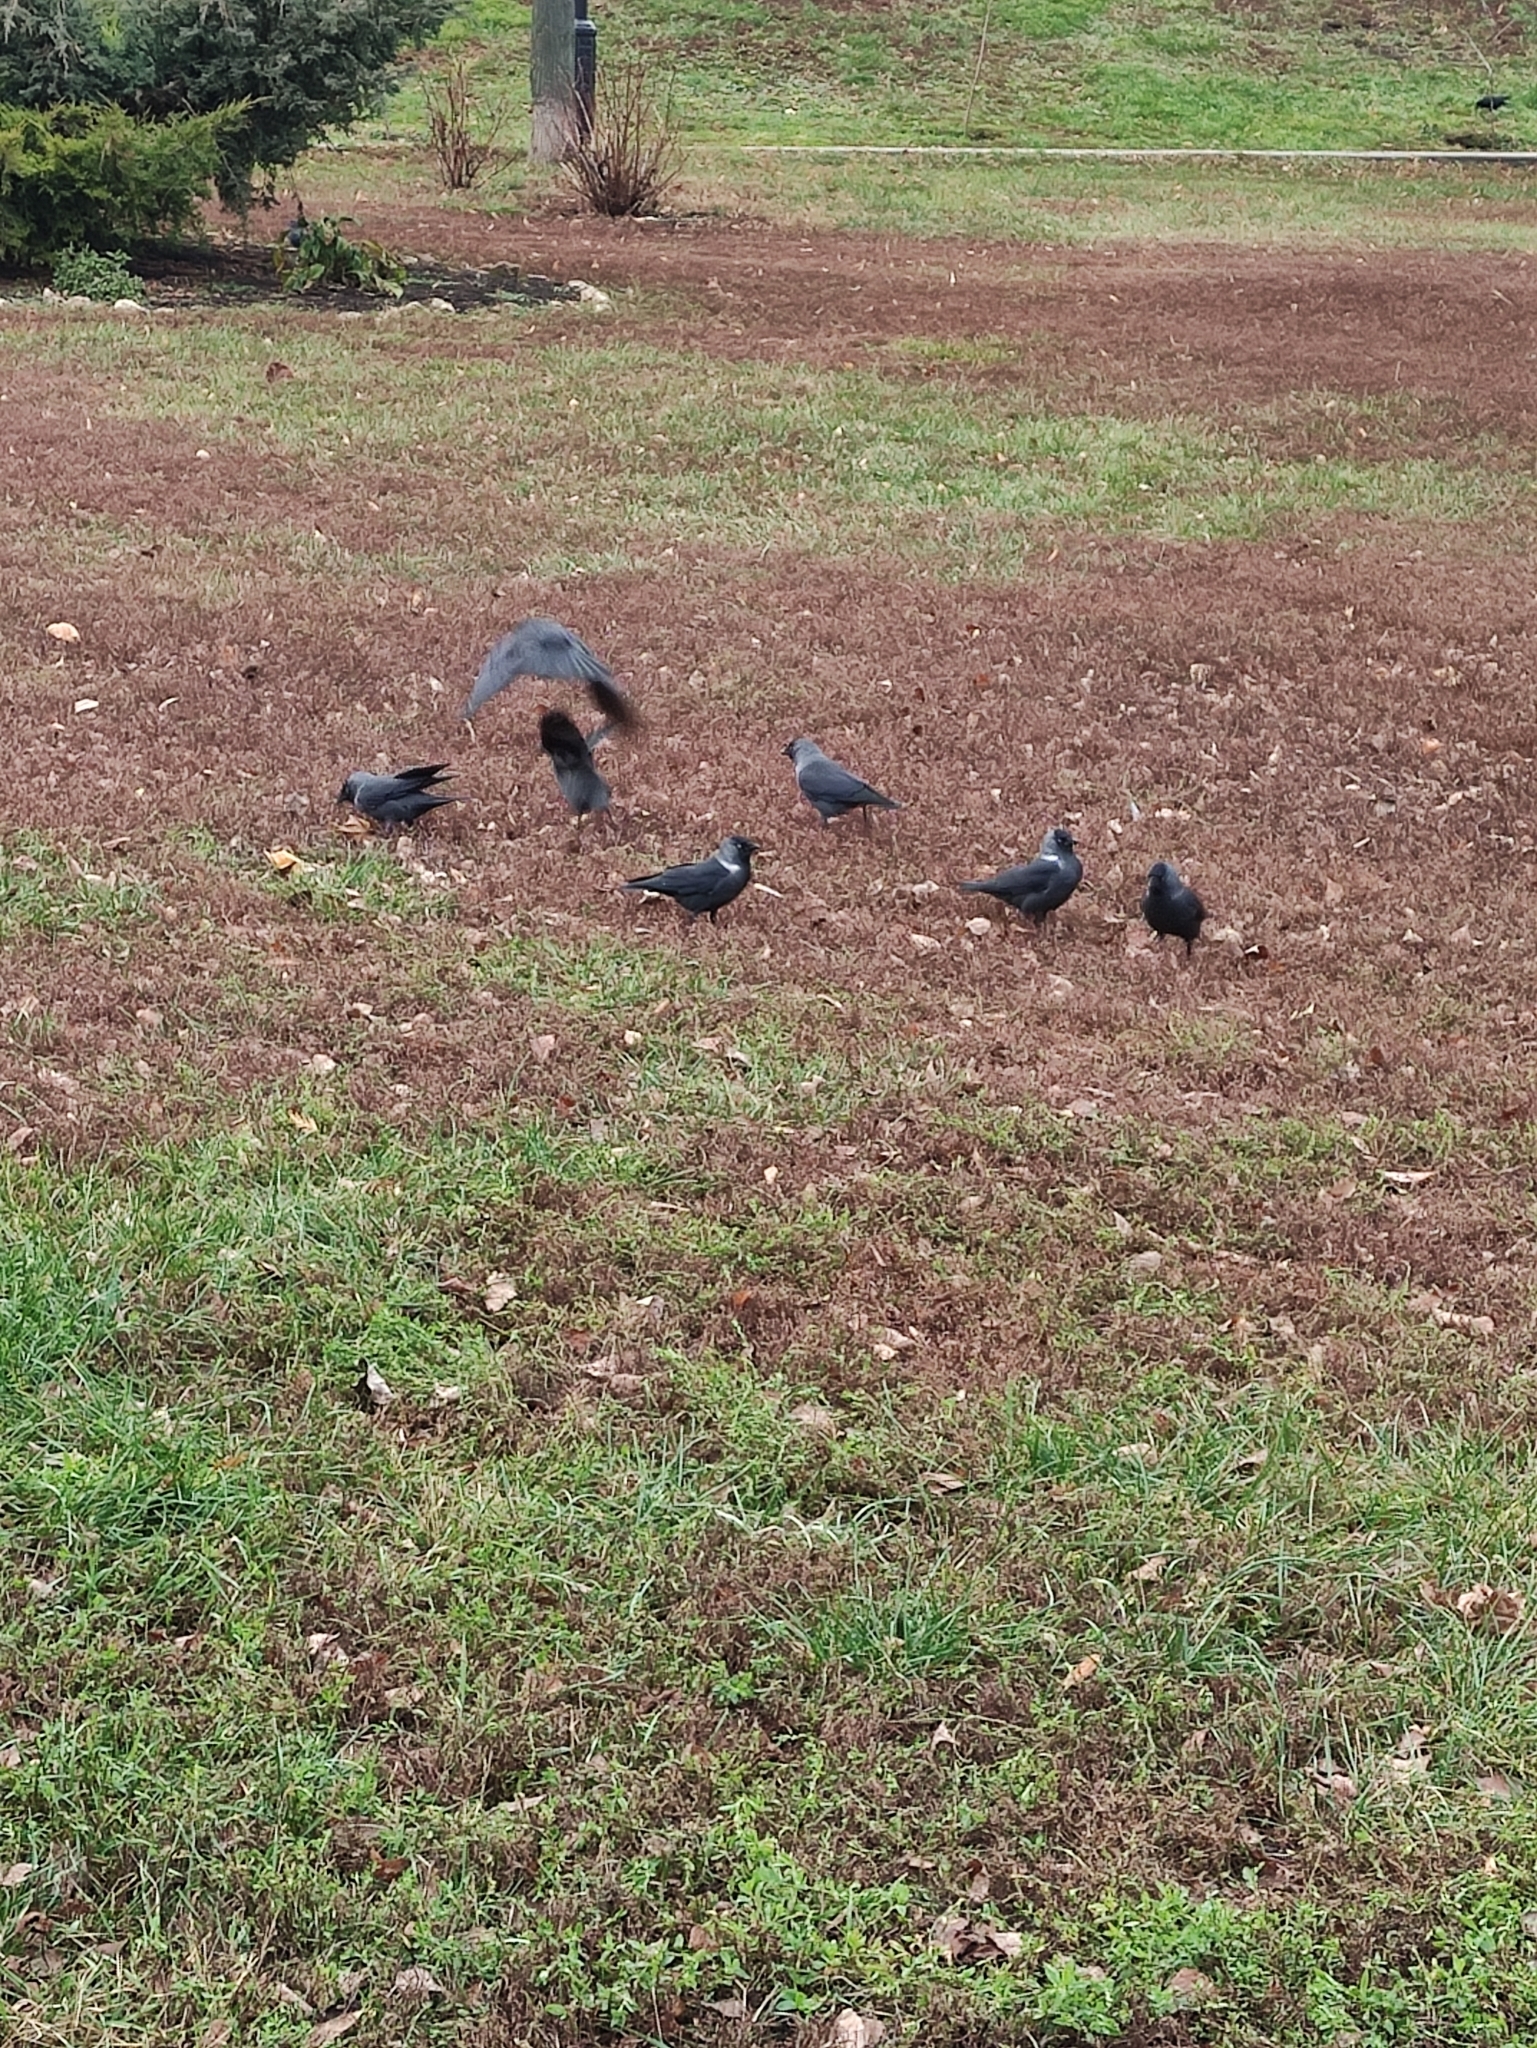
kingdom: Animalia
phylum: Chordata
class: Aves
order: Passeriformes
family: Corvidae
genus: Coloeus
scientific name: Coloeus monedula
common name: Western jackdaw
